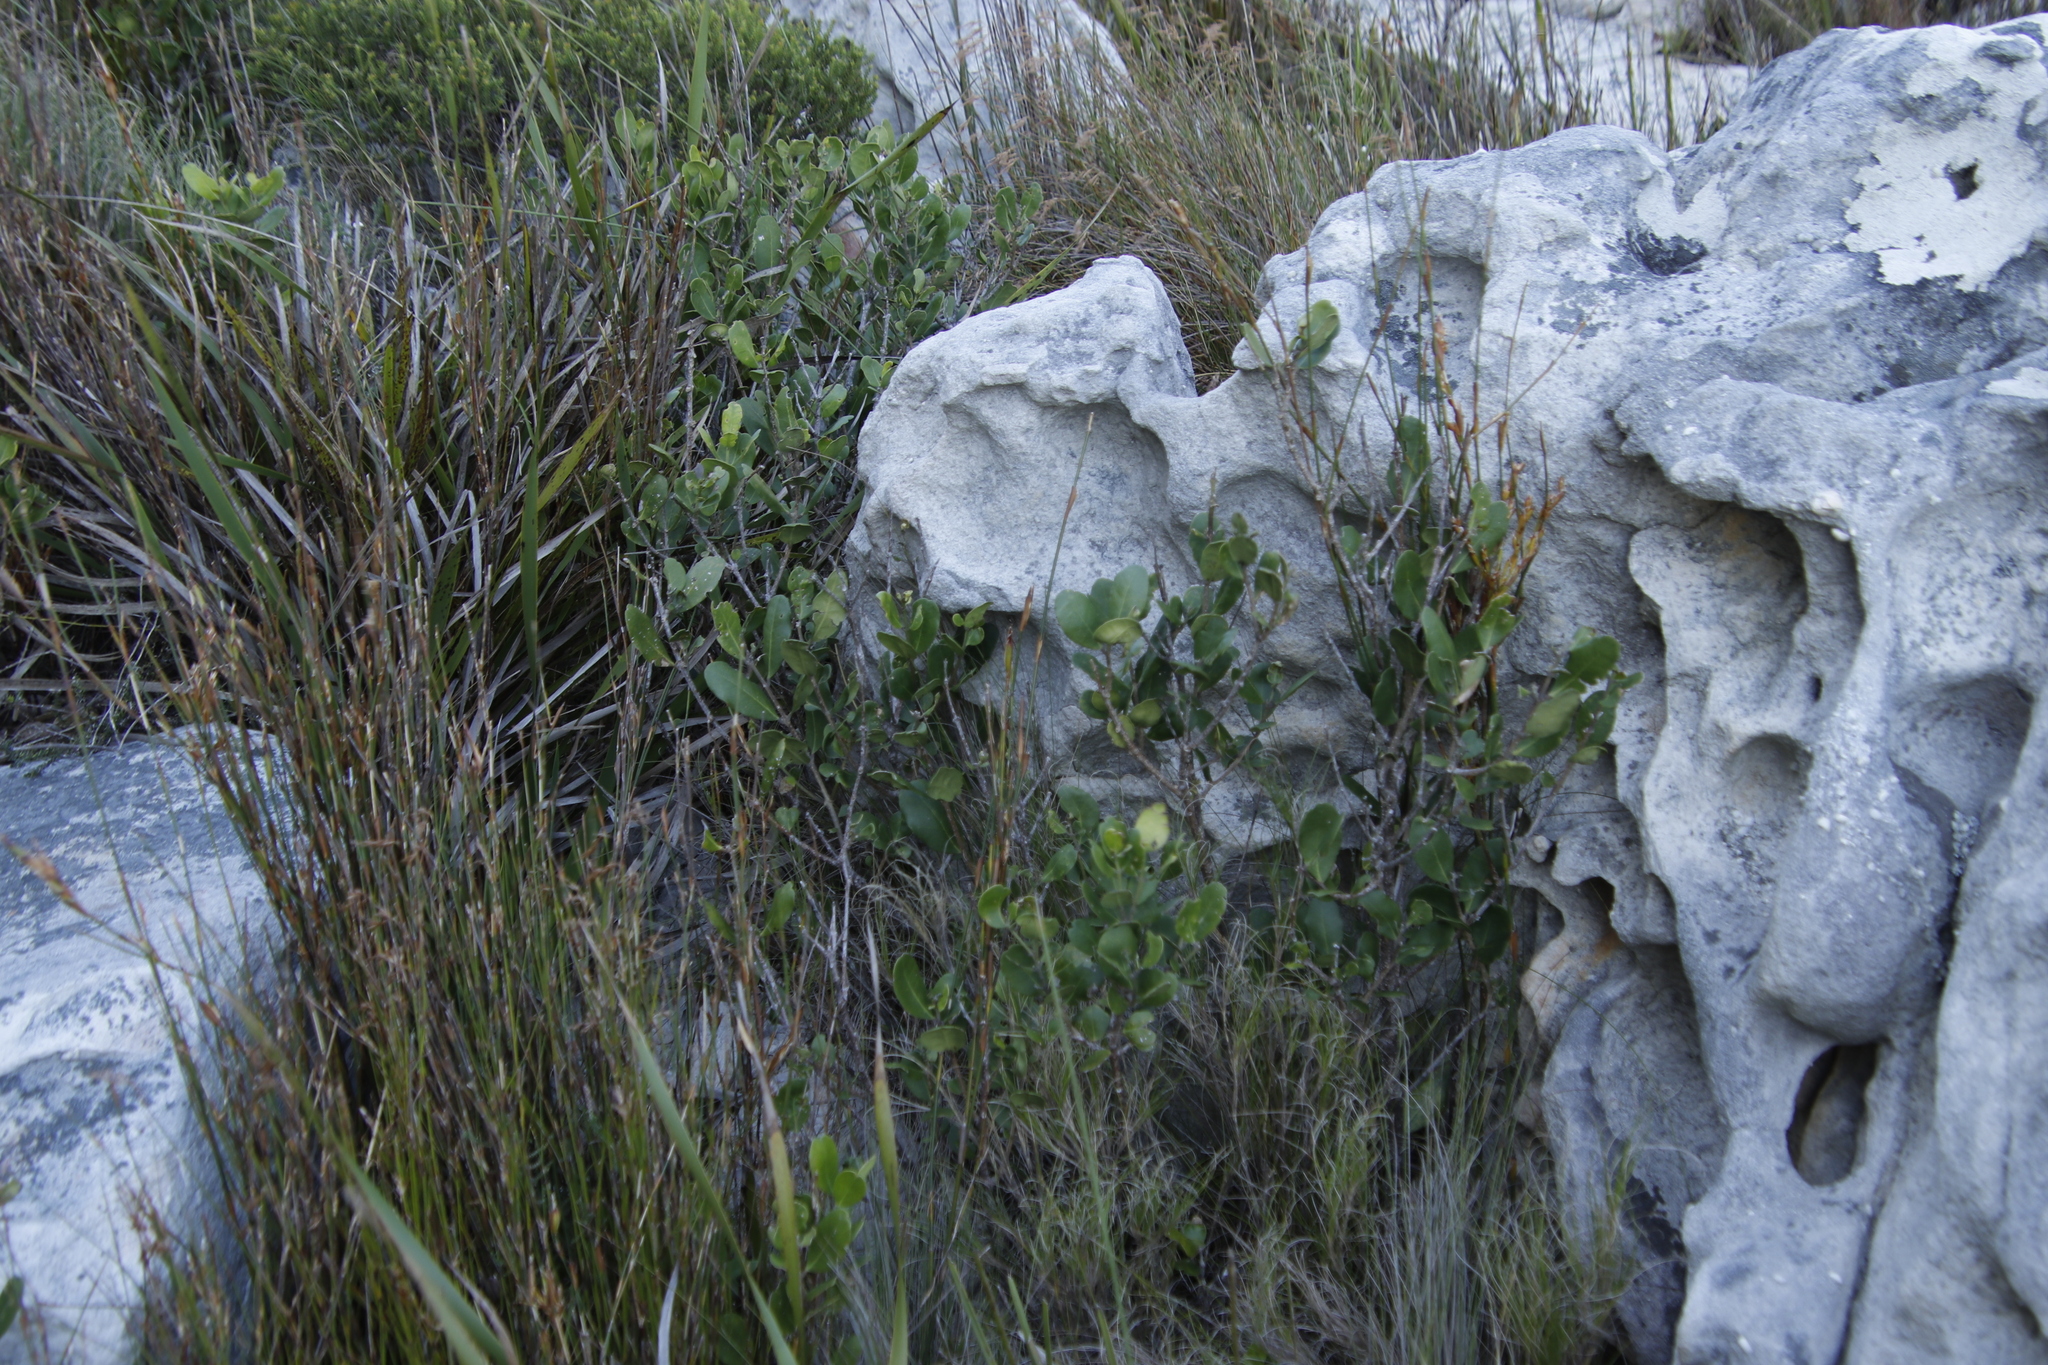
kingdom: Plantae
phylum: Tracheophyta
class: Magnoliopsida
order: Lamiales
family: Oleaceae
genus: Olea
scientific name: Olea capensis
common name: Black ironwood
